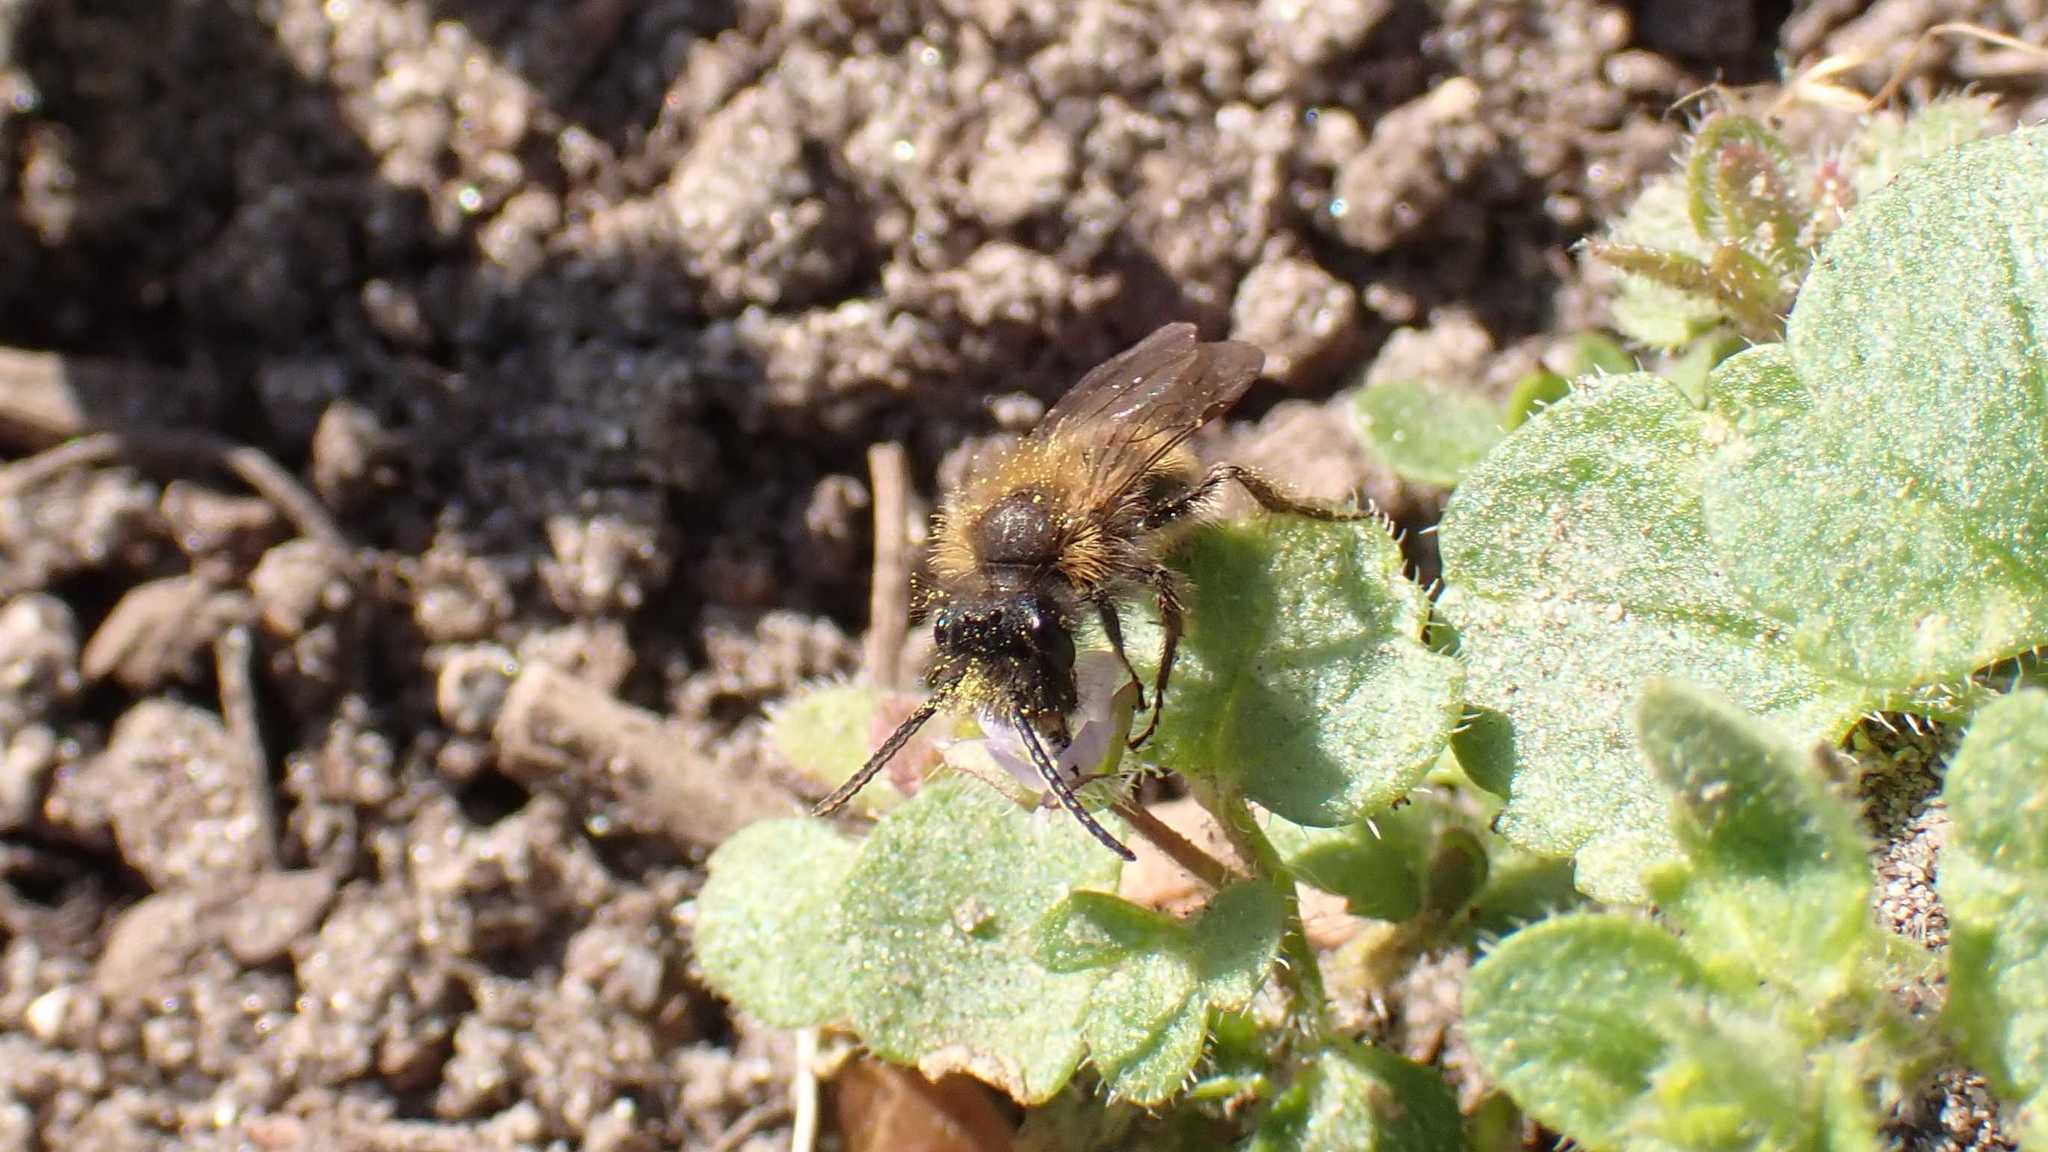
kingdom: Animalia
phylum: Arthropoda
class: Insecta
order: Hymenoptera
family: Andrenidae
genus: Andrena
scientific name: Andrena
